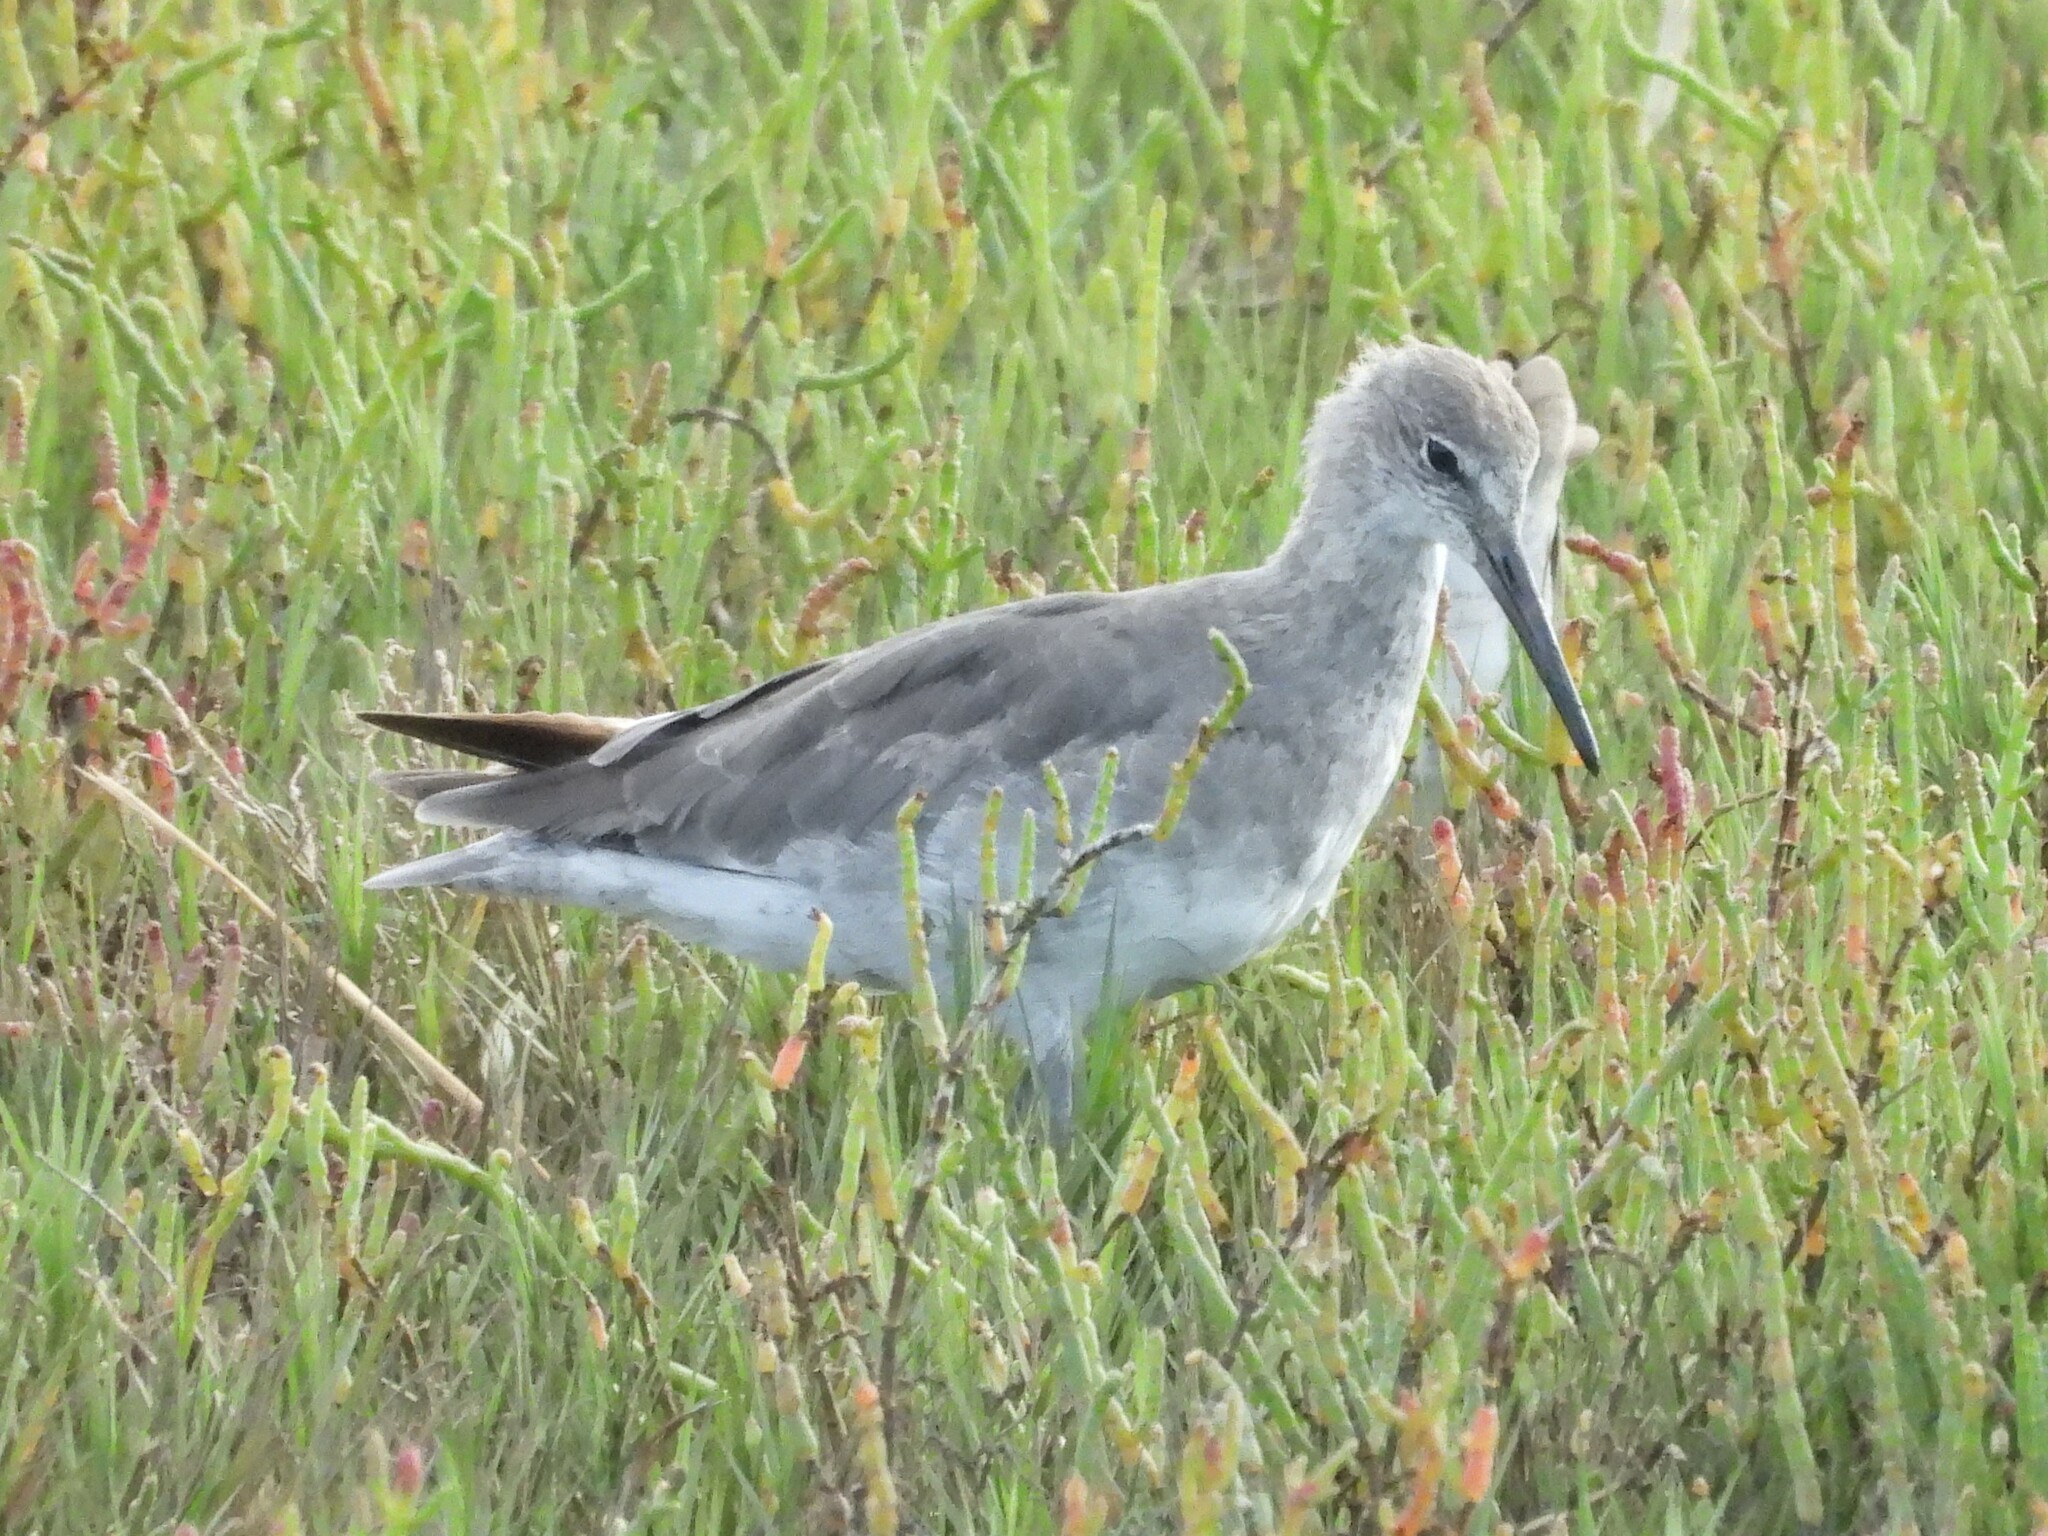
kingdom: Animalia
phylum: Chordata
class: Aves
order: Charadriiformes
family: Scolopacidae
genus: Tringa
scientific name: Tringa semipalmata
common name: Willet
